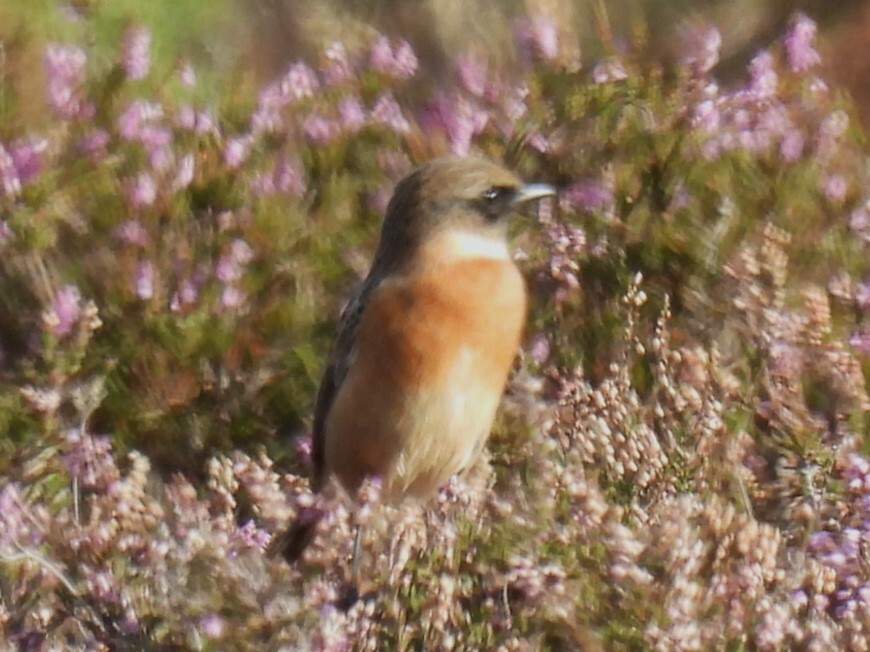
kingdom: Animalia
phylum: Chordata
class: Aves
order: Passeriformes
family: Muscicapidae
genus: Saxicola
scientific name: Saxicola rubicola
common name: European stonechat
